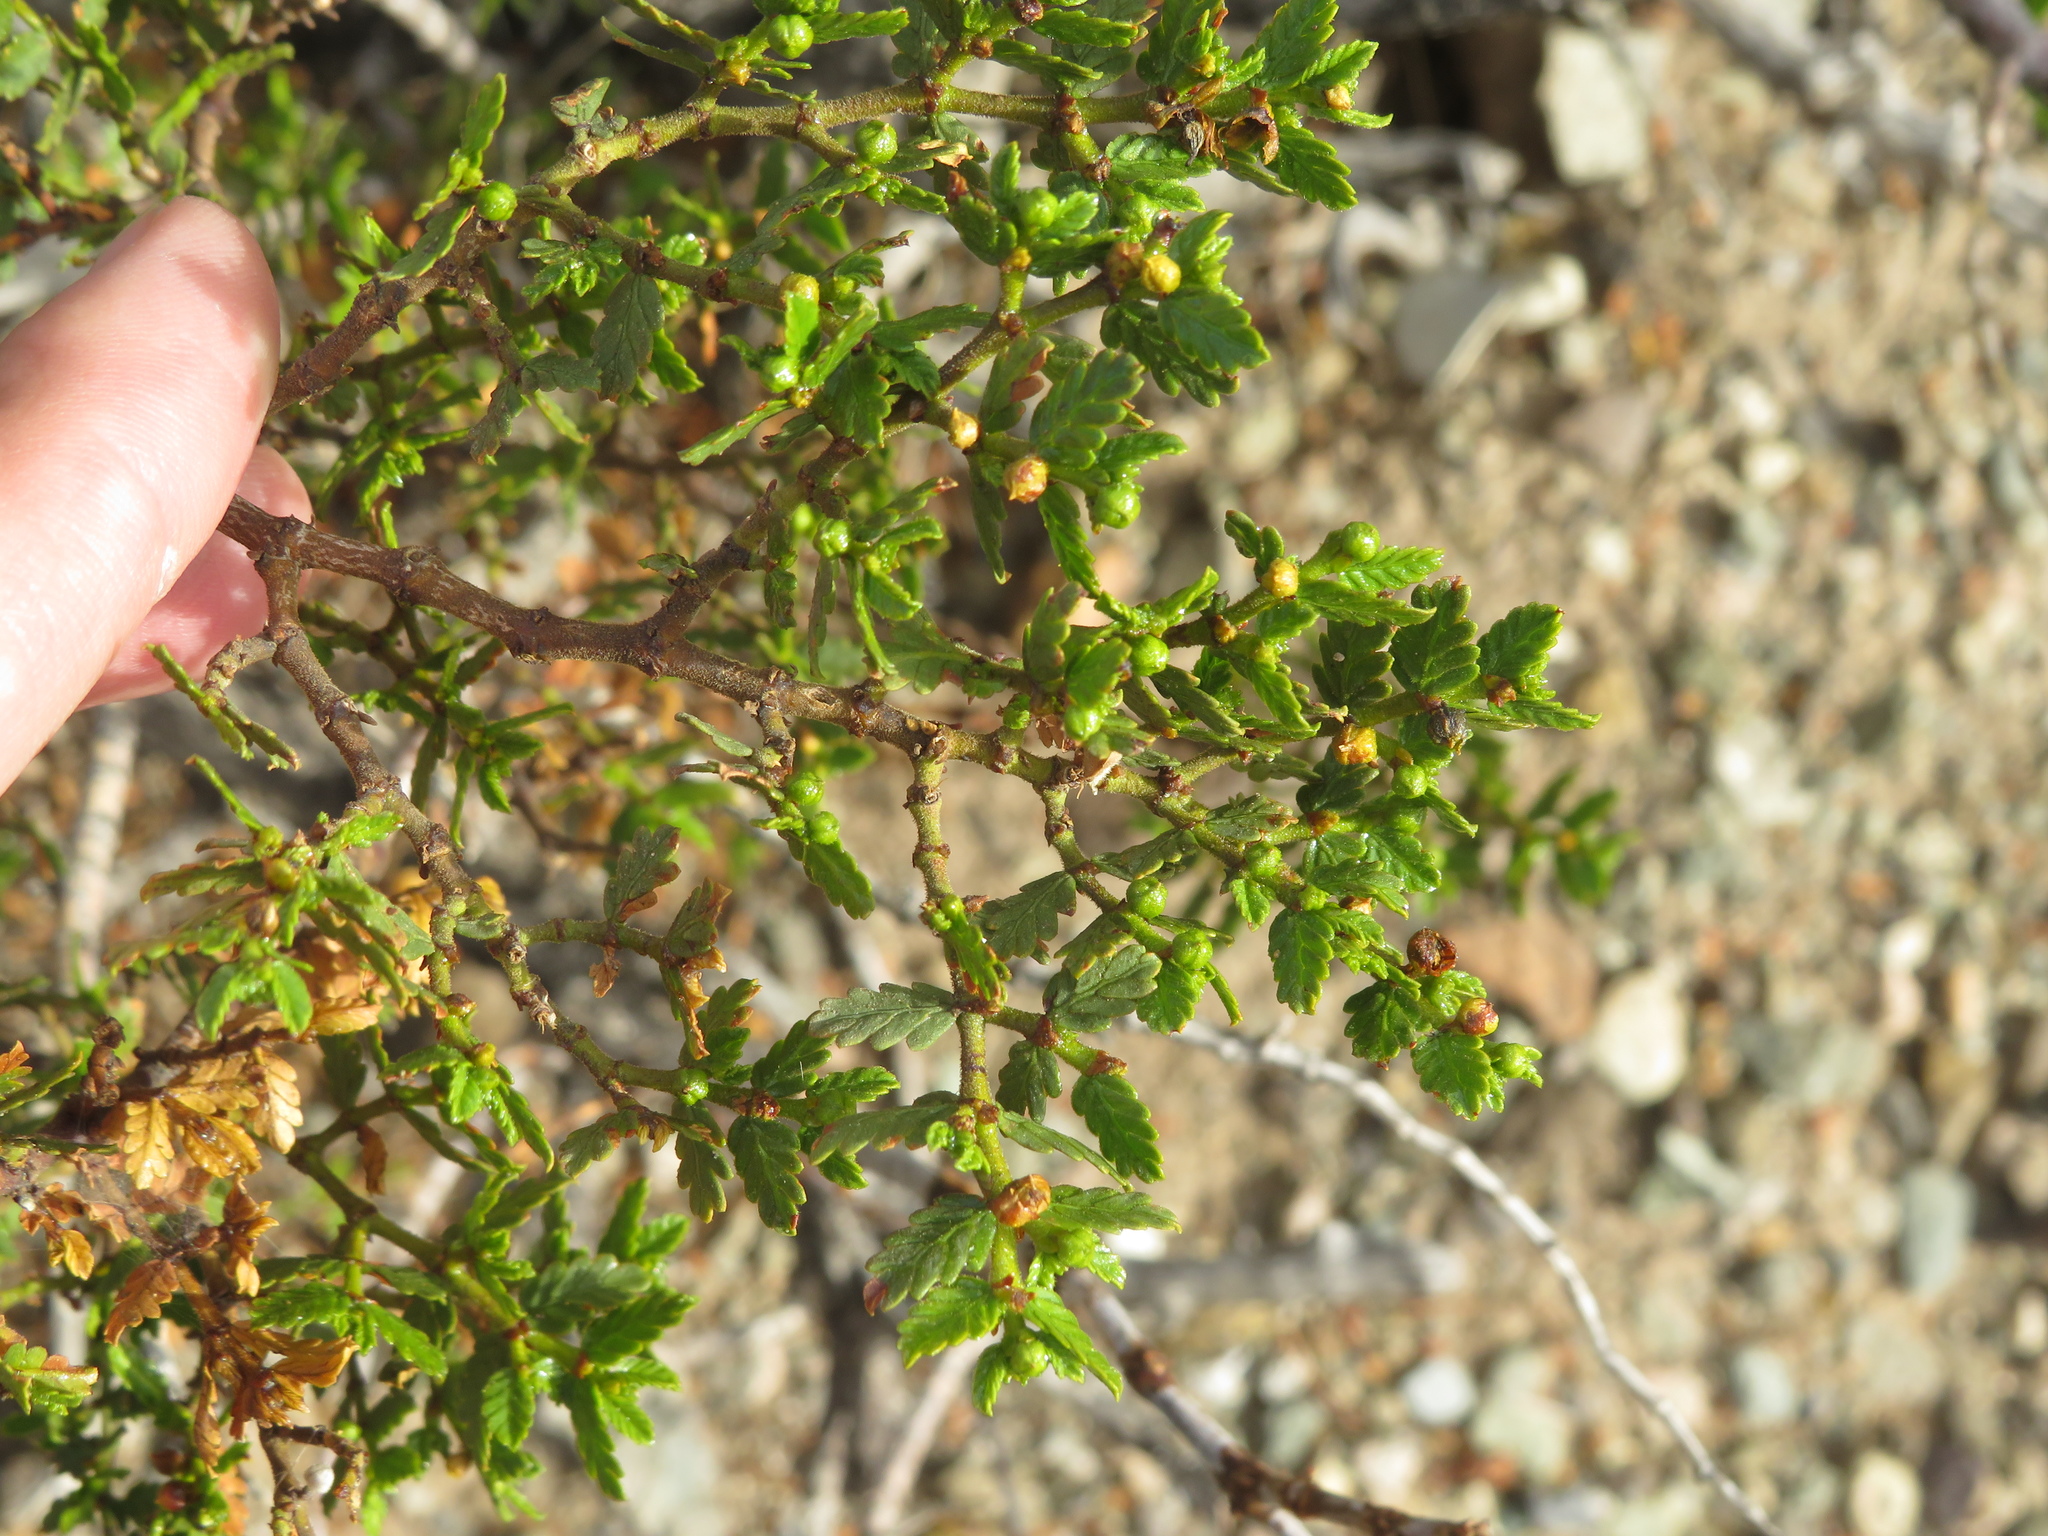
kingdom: Plantae
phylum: Tracheophyta
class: Magnoliopsida
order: Zygophyllales
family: Zygophyllaceae
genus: Larrea
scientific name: Larrea nitida
